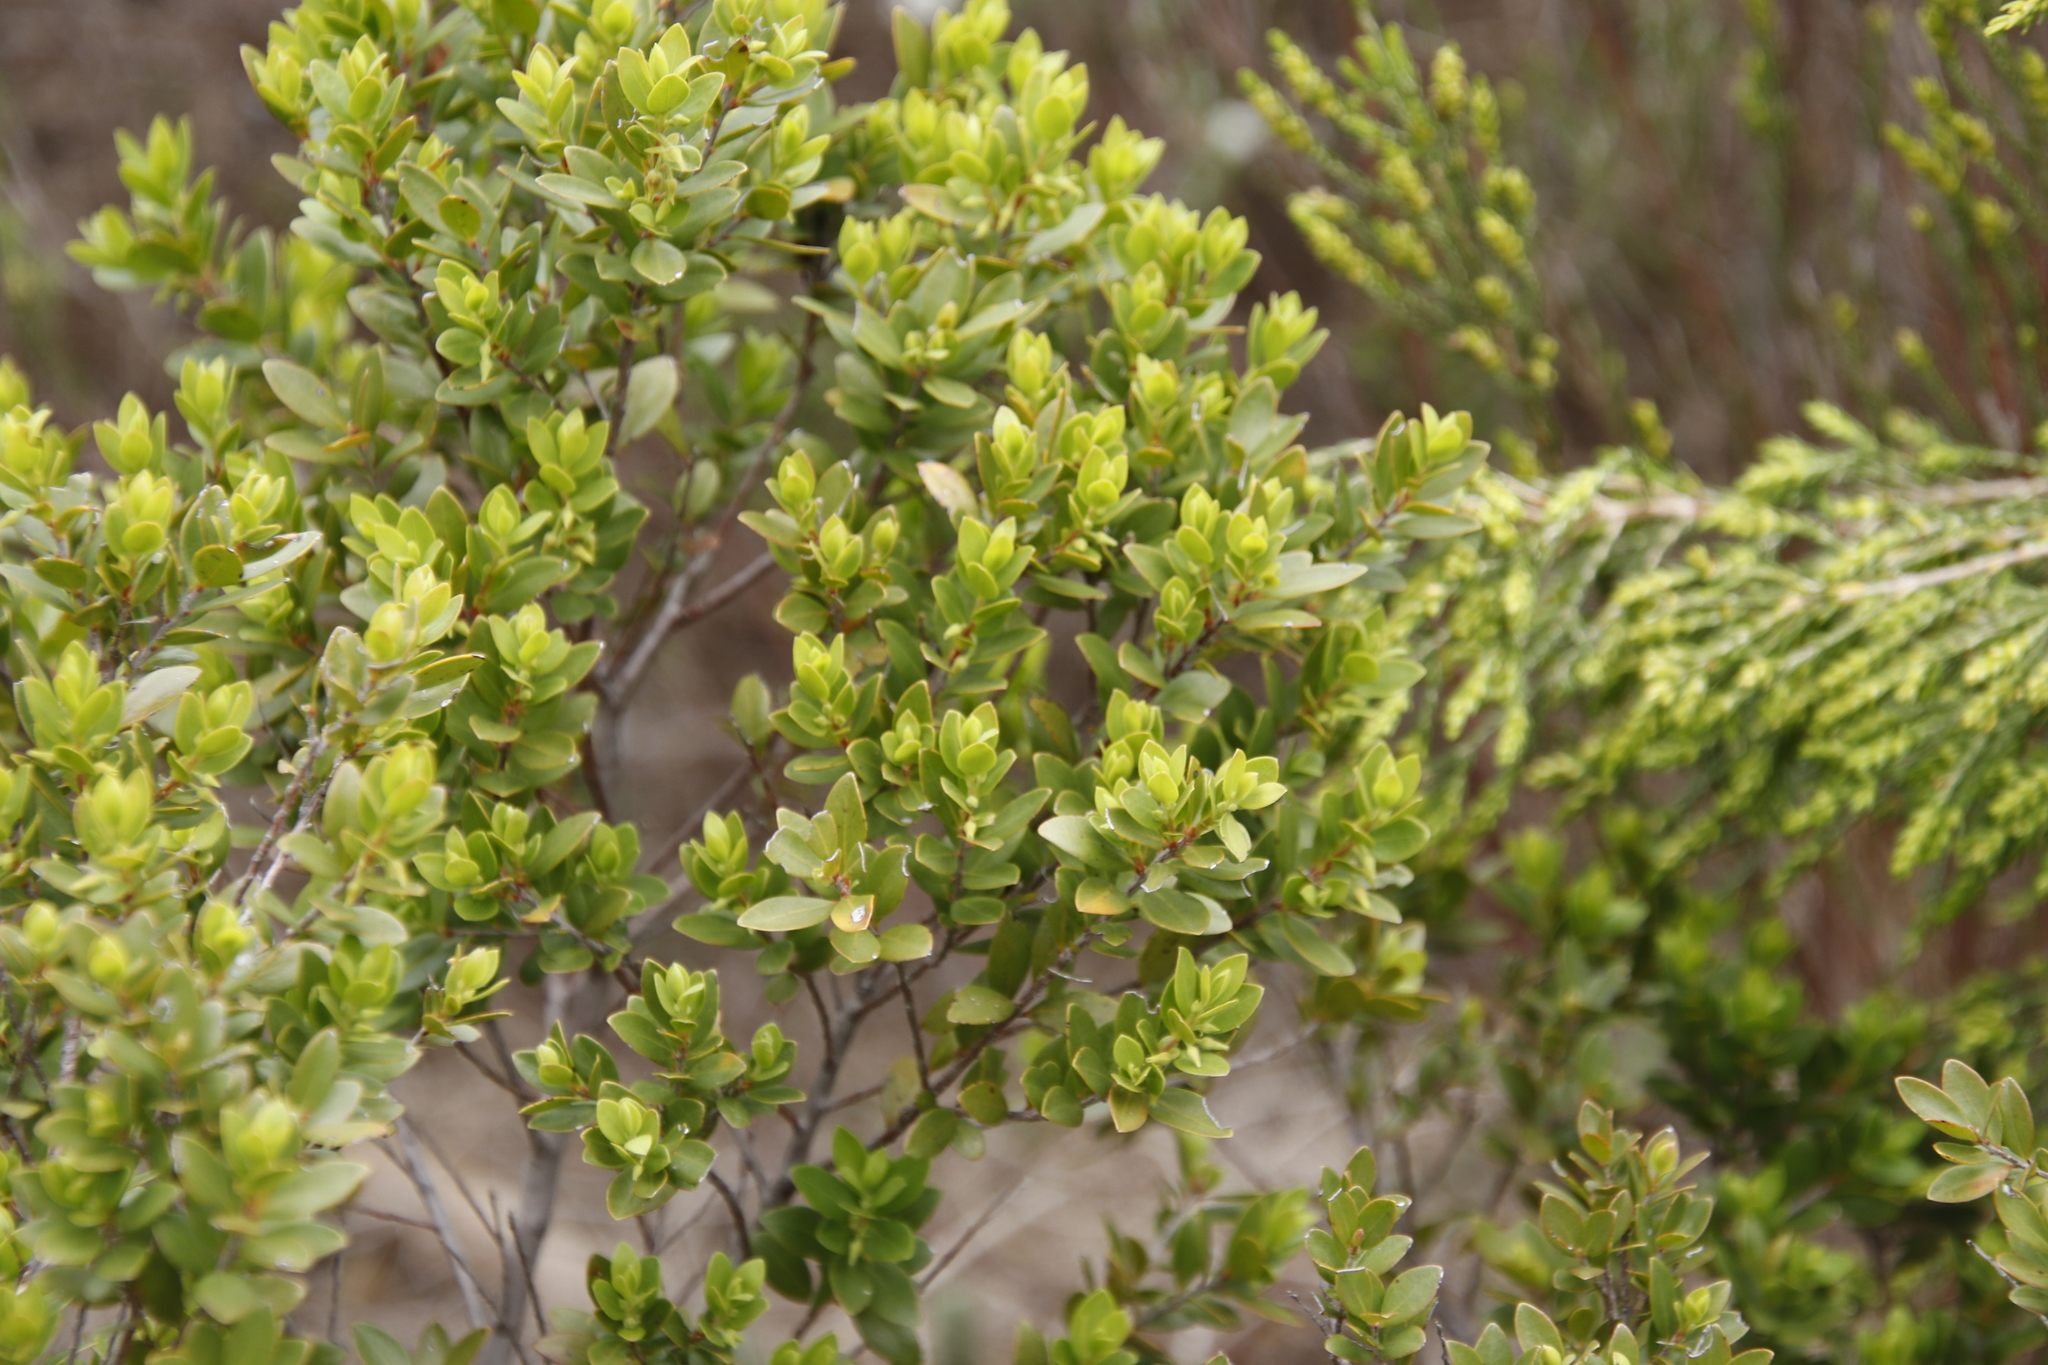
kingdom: Plantae
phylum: Tracheophyta
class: Magnoliopsida
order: Ericales
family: Ebenaceae
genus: Diospyros
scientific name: Diospyros glabra
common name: Fynbos star apple
